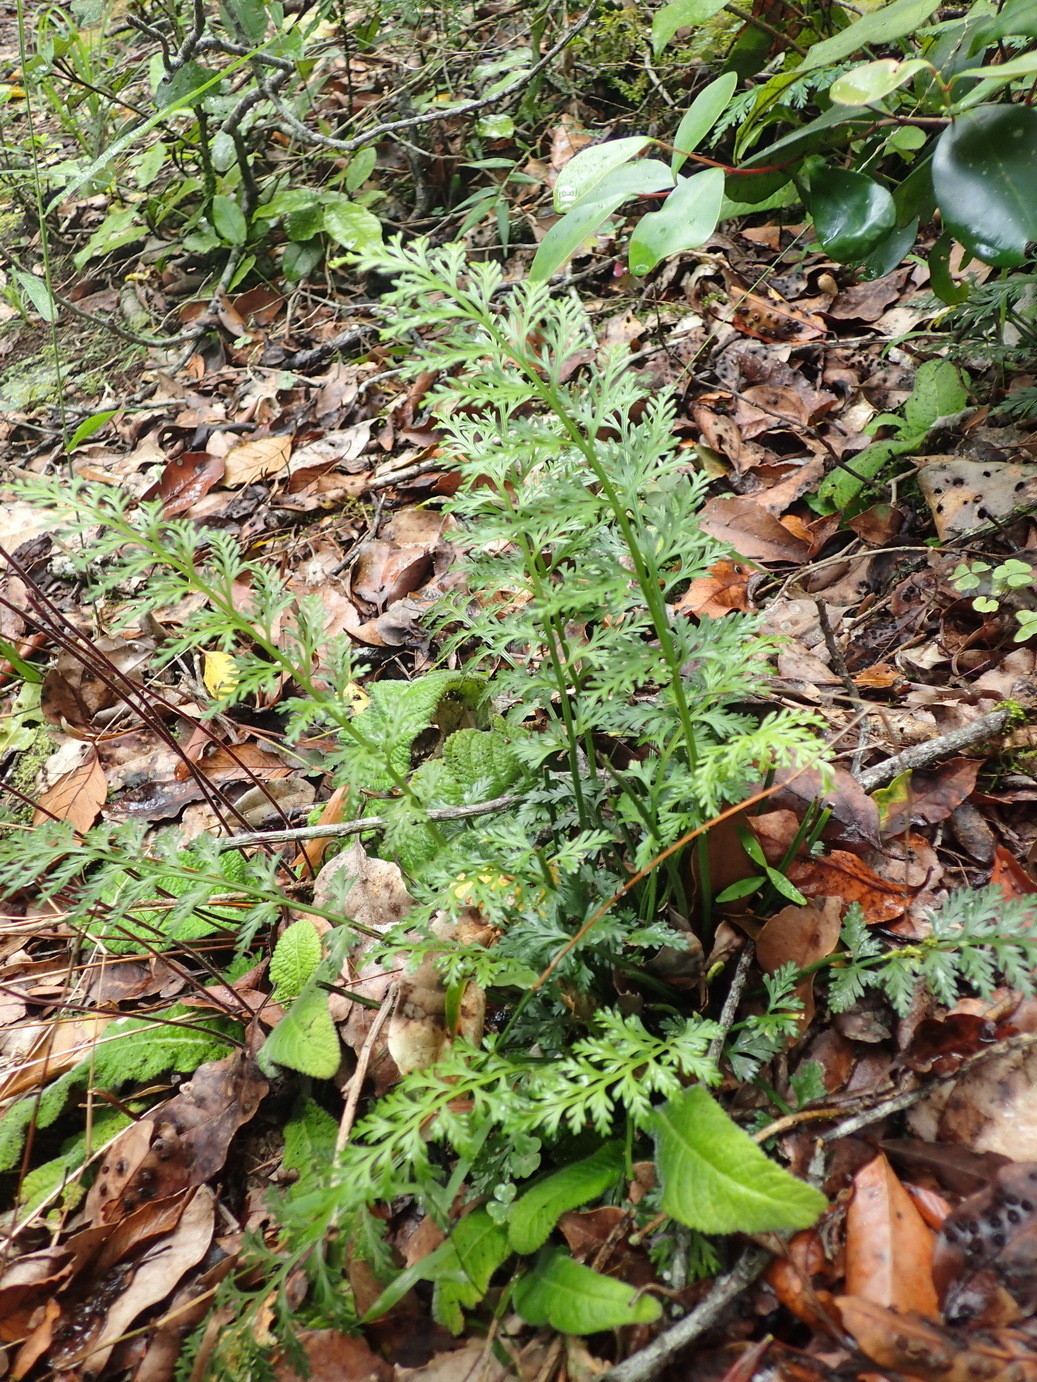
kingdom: Plantae
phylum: Tracheophyta
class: Polypodiopsida
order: Polypodiales
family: Aspleniaceae
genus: Asplenium
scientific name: Asplenium rutifolium
